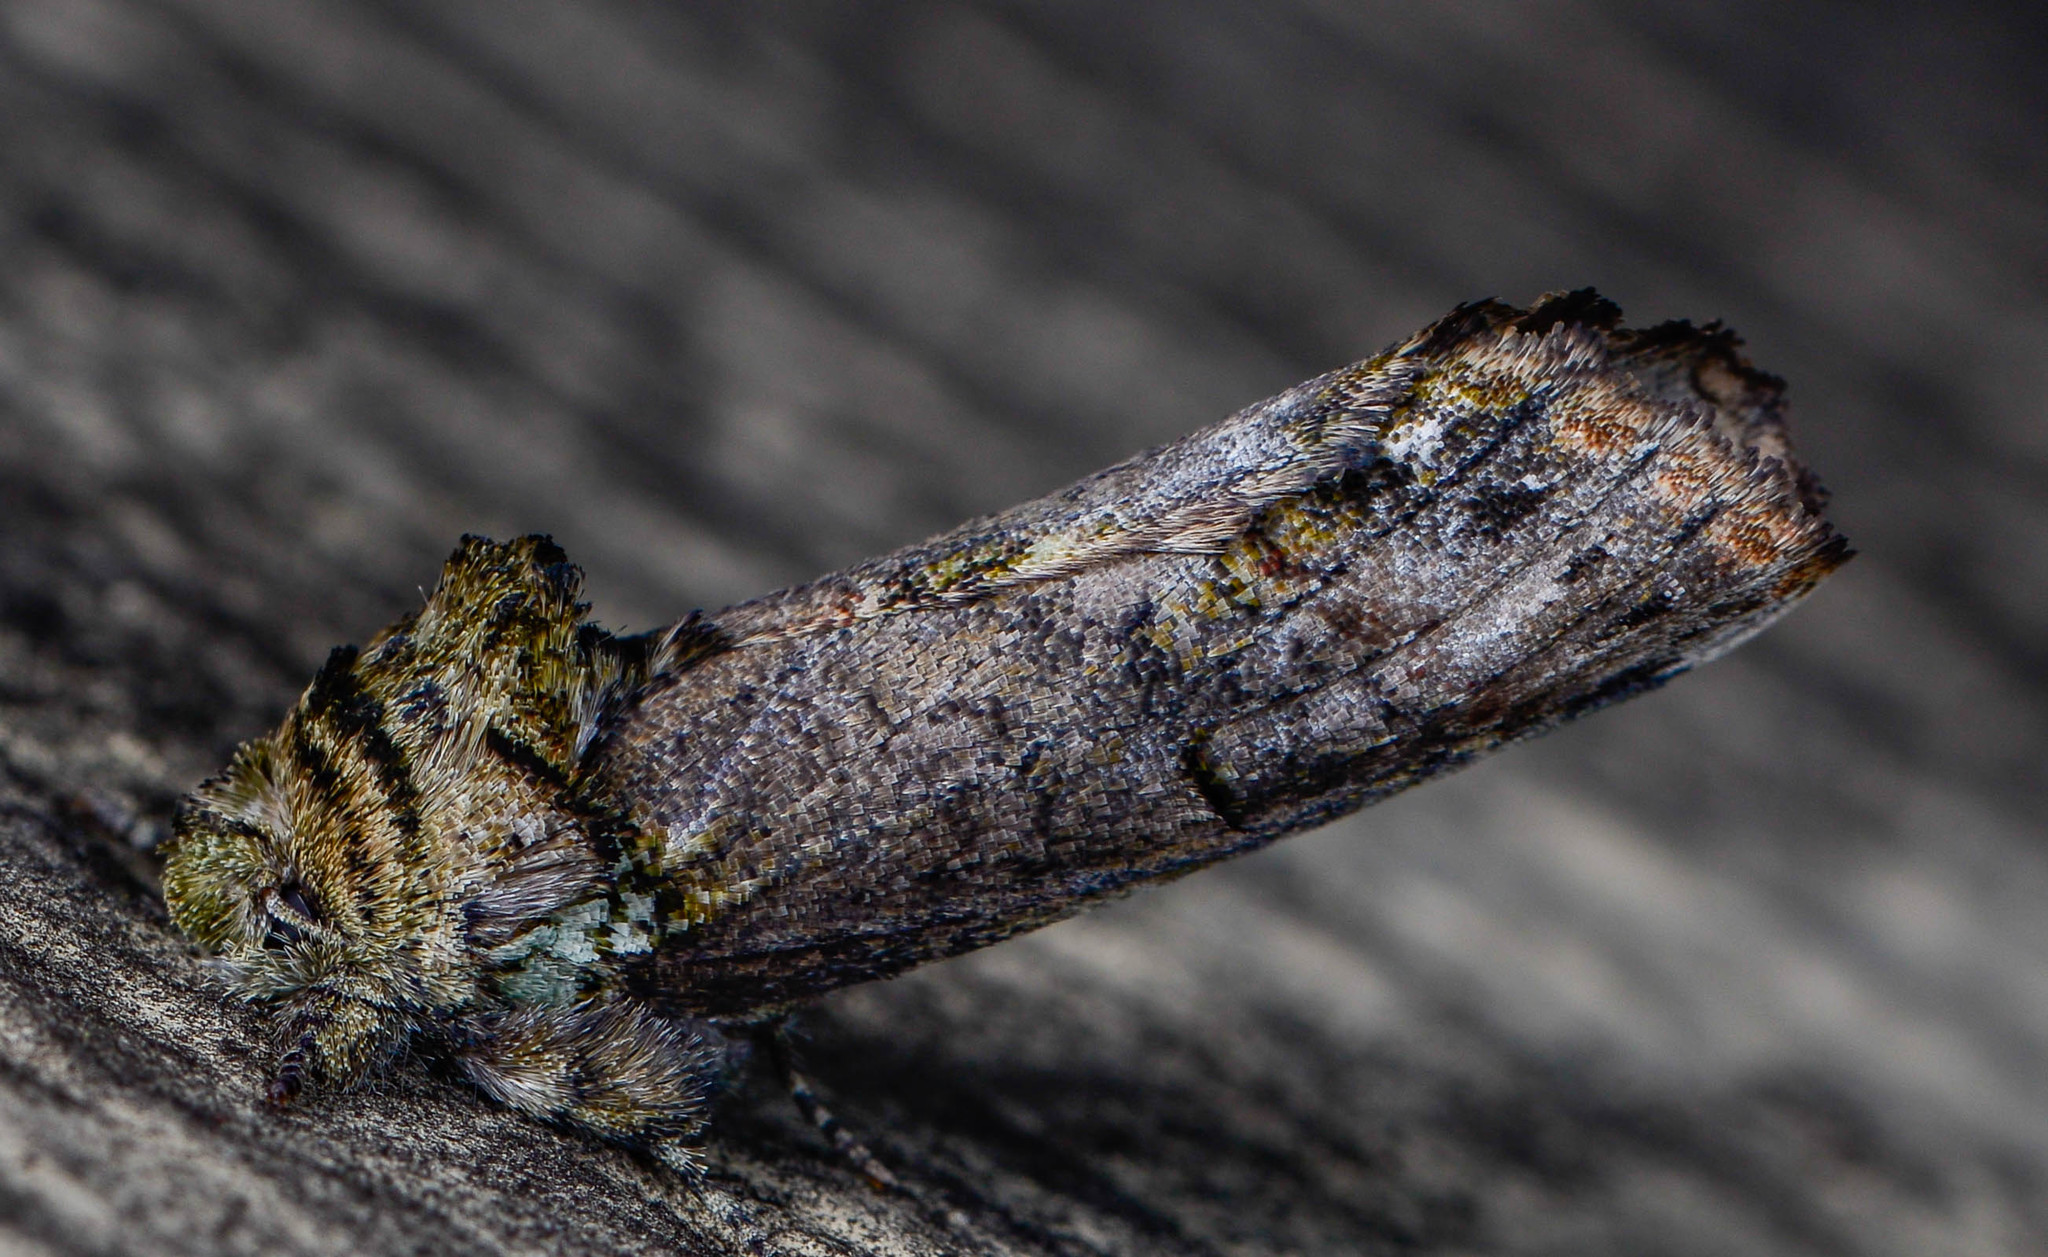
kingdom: Animalia
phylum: Arthropoda
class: Insecta
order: Lepidoptera
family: Notodontidae
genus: Schizura
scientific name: Schizura
